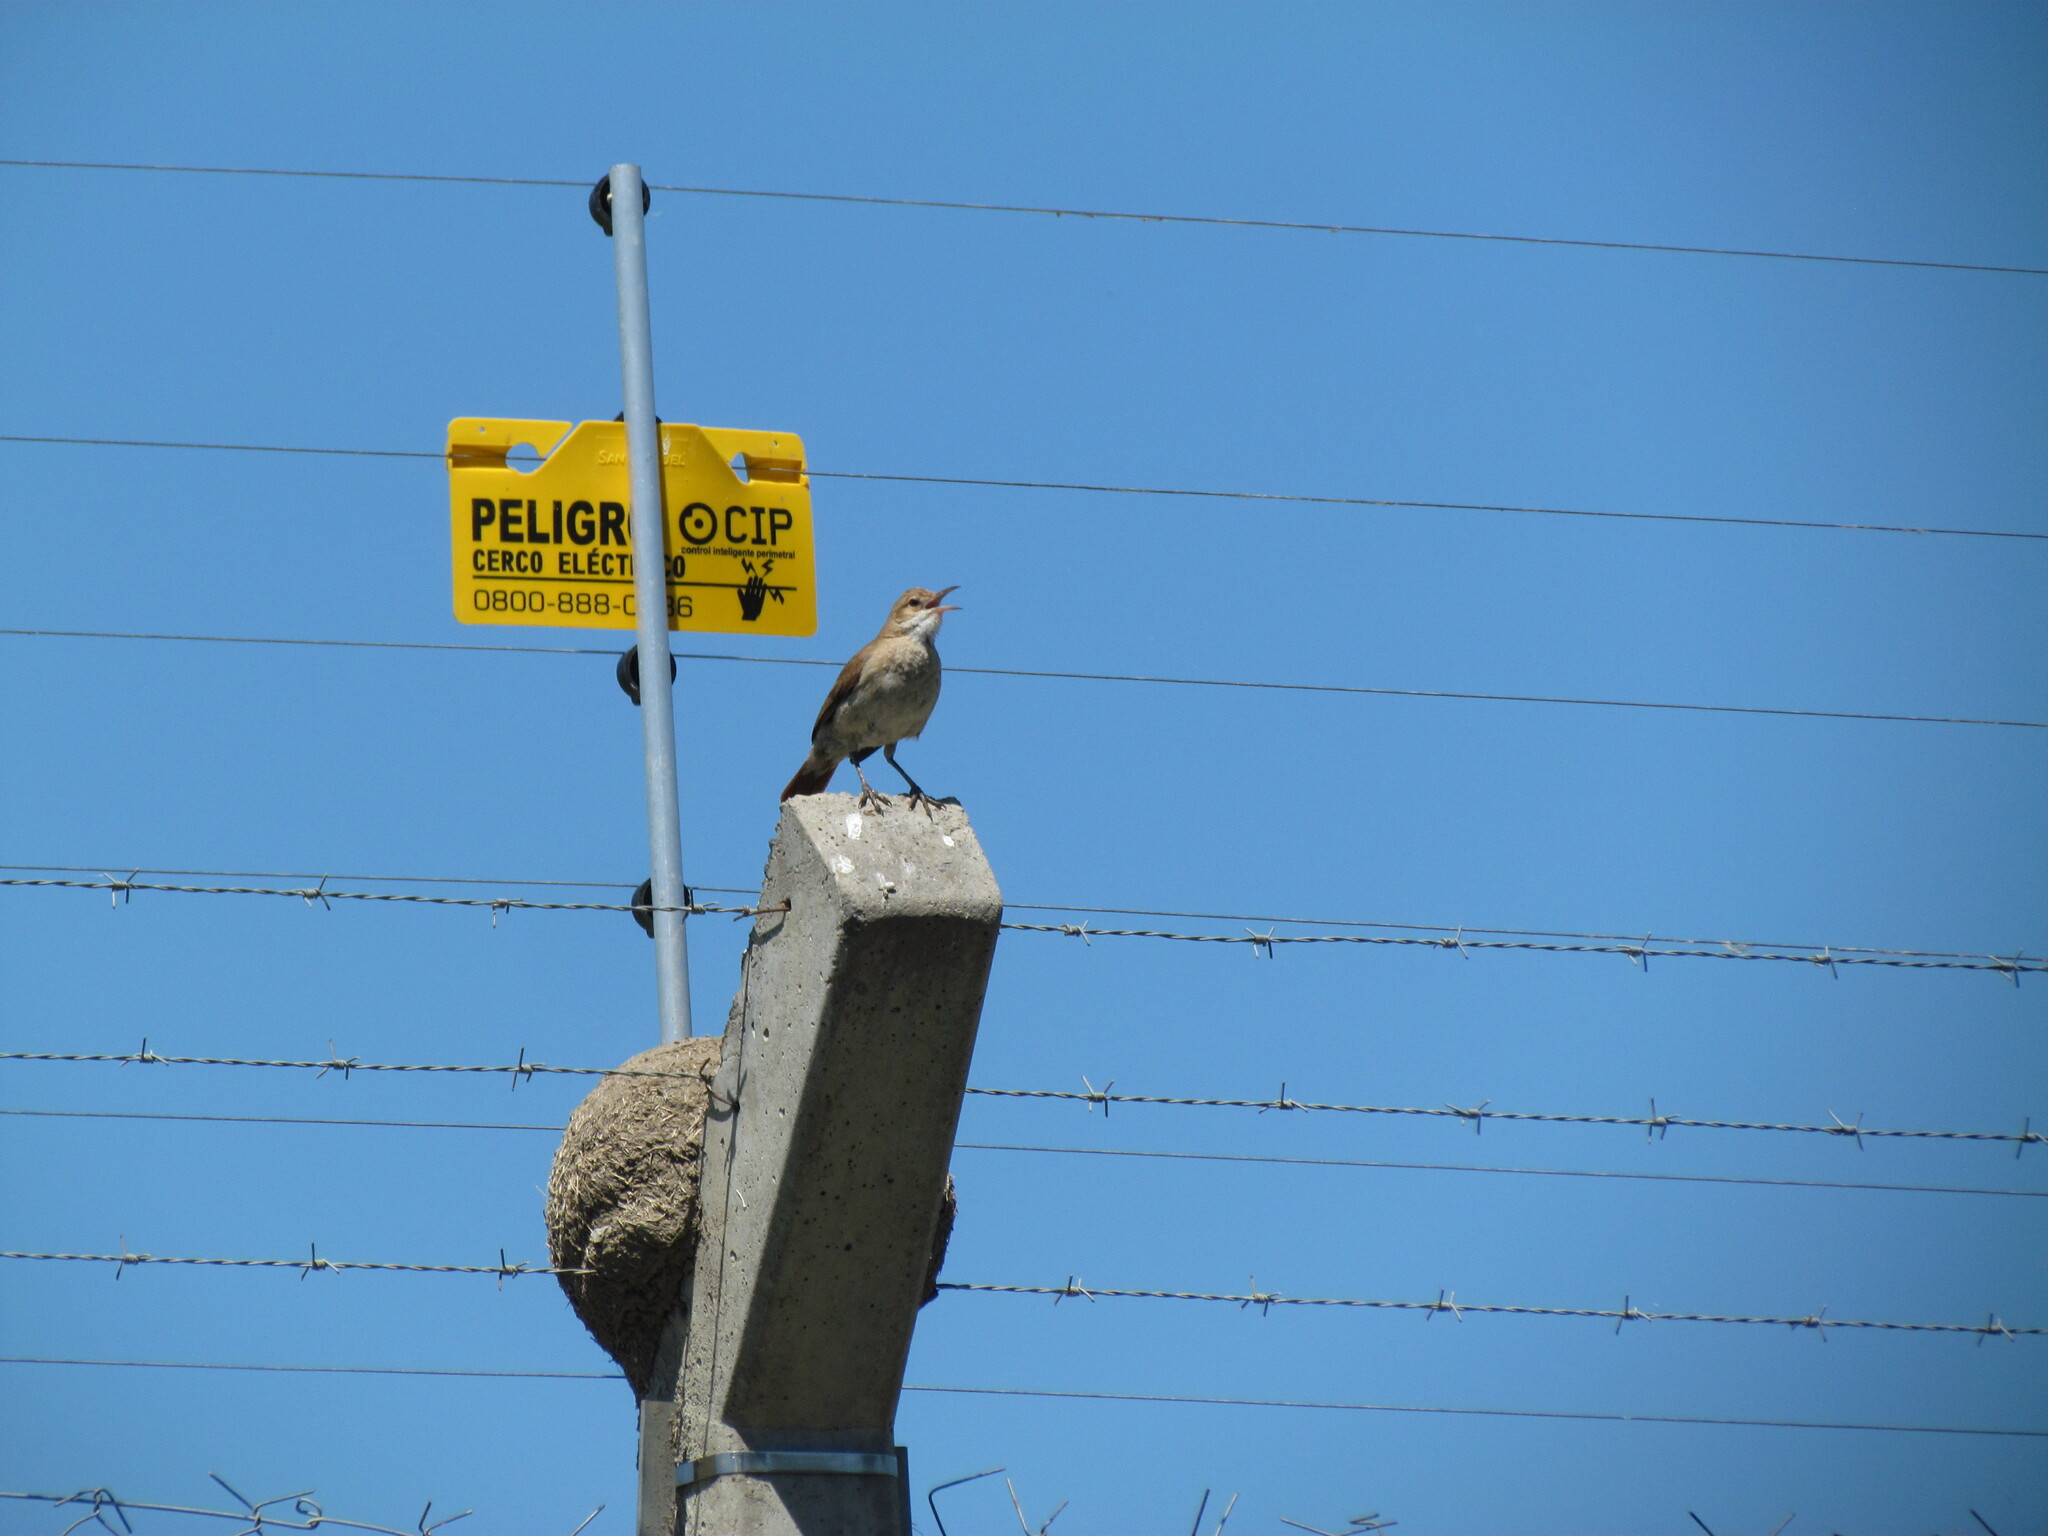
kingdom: Animalia
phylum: Chordata
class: Aves
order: Passeriformes
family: Furnariidae
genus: Furnarius
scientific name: Furnarius rufus
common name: Rufous hornero
